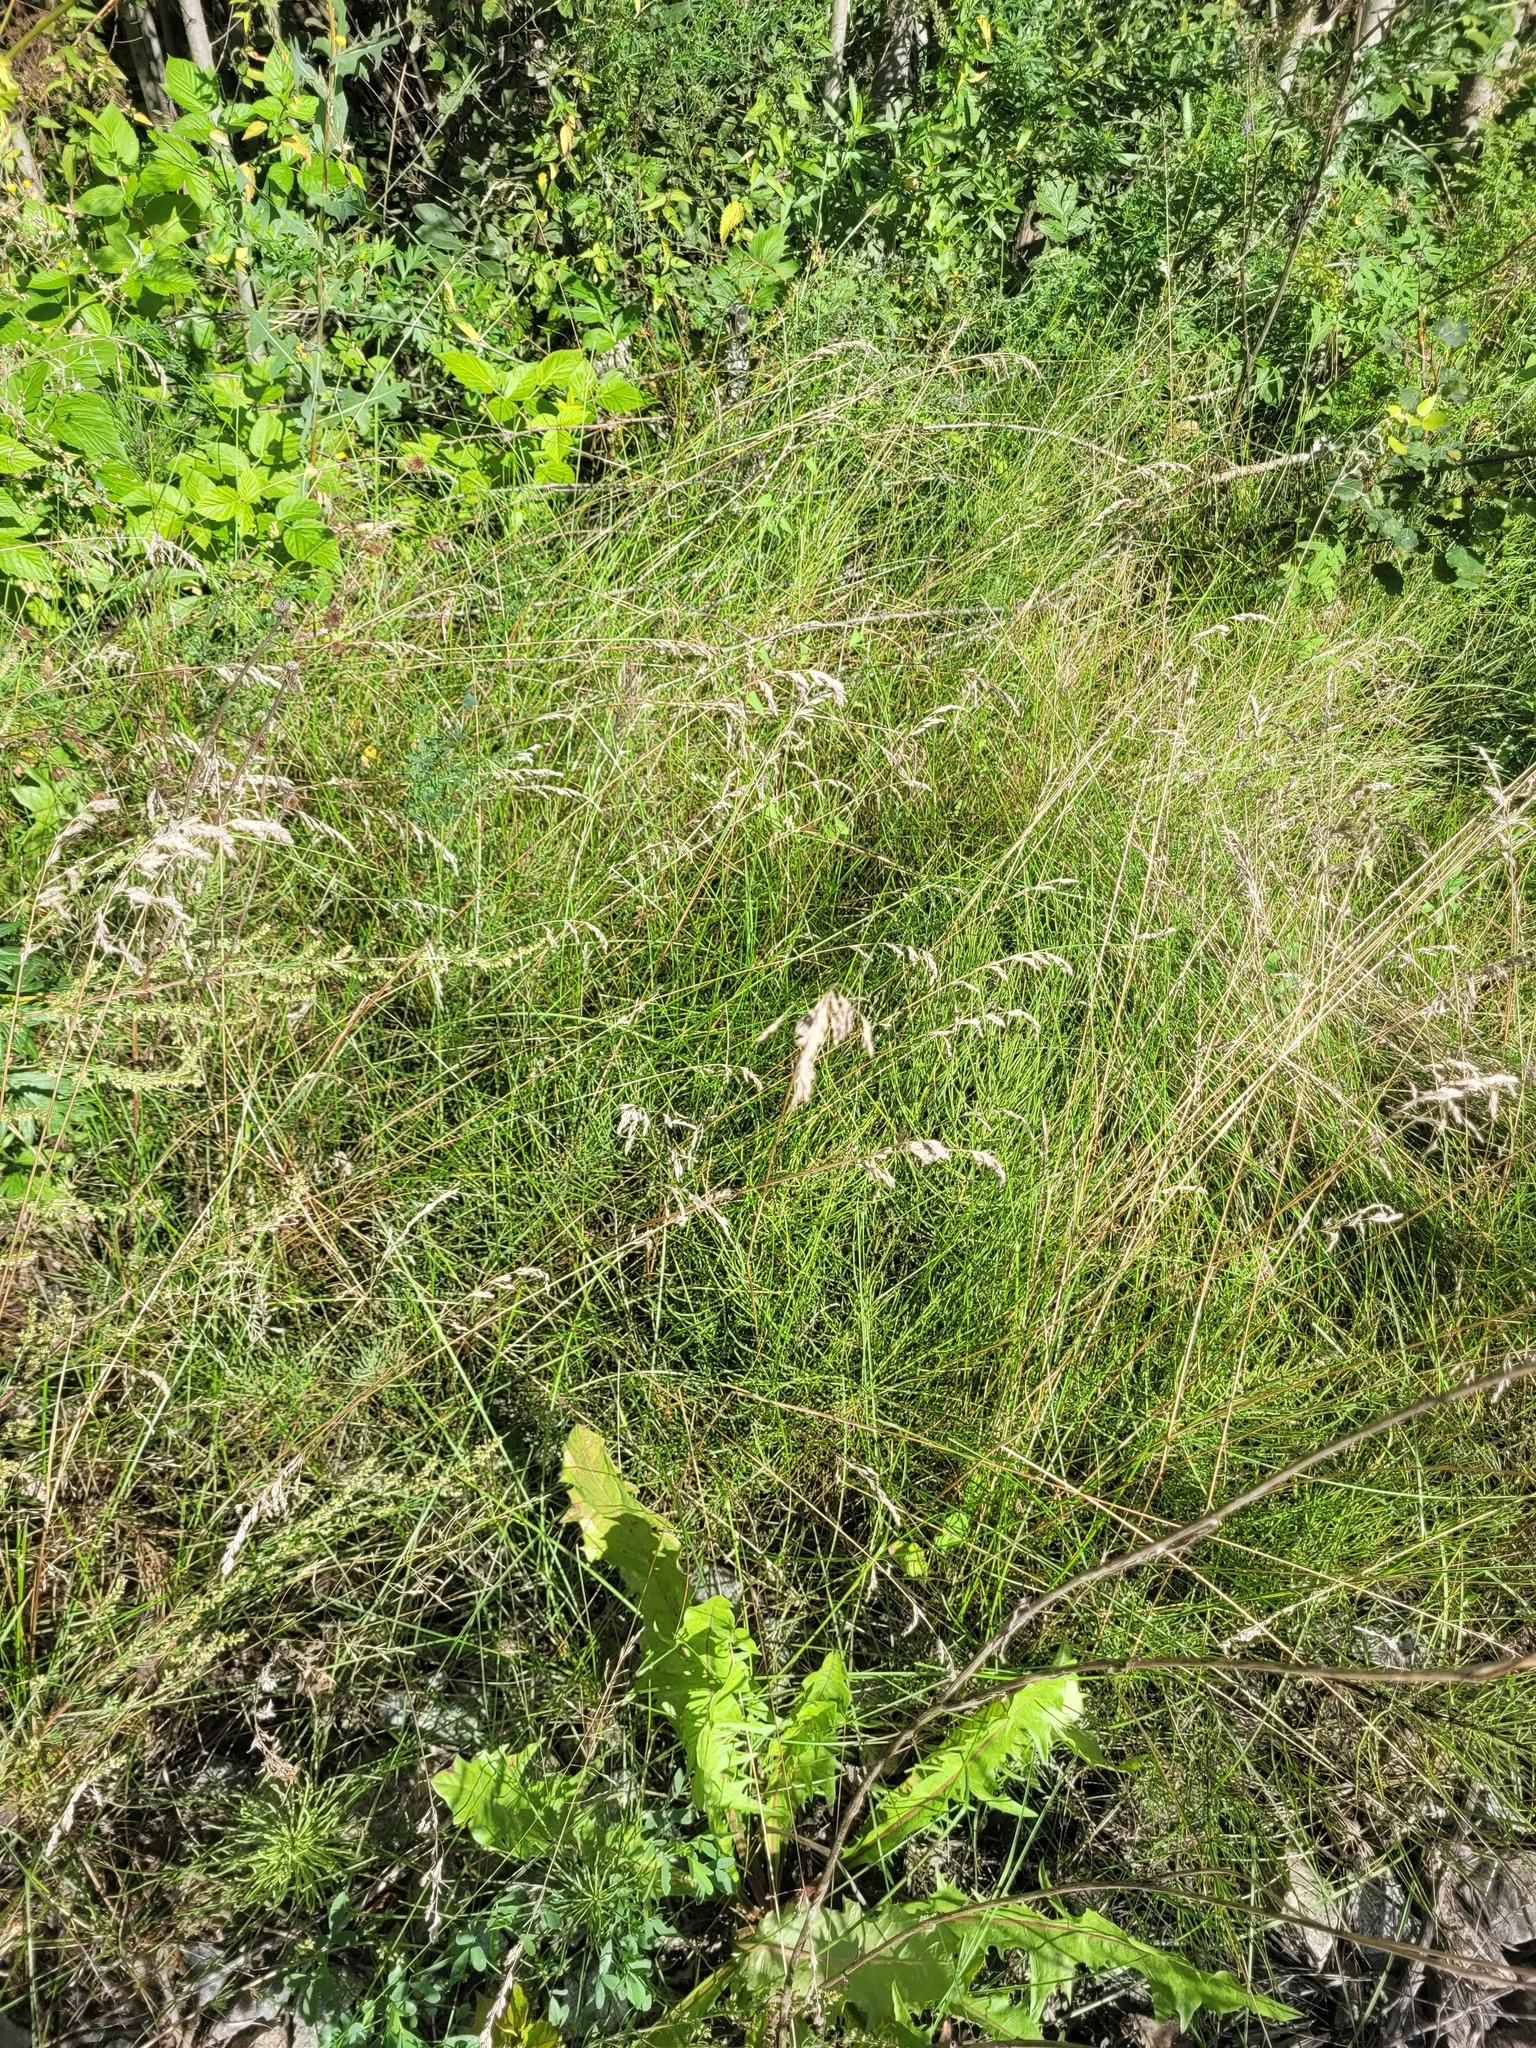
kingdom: Plantae
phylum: Tracheophyta
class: Liliopsida
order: Poales
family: Poaceae
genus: Poa
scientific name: Poa angustifolia
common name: Narrow-leaved meadow-grass
